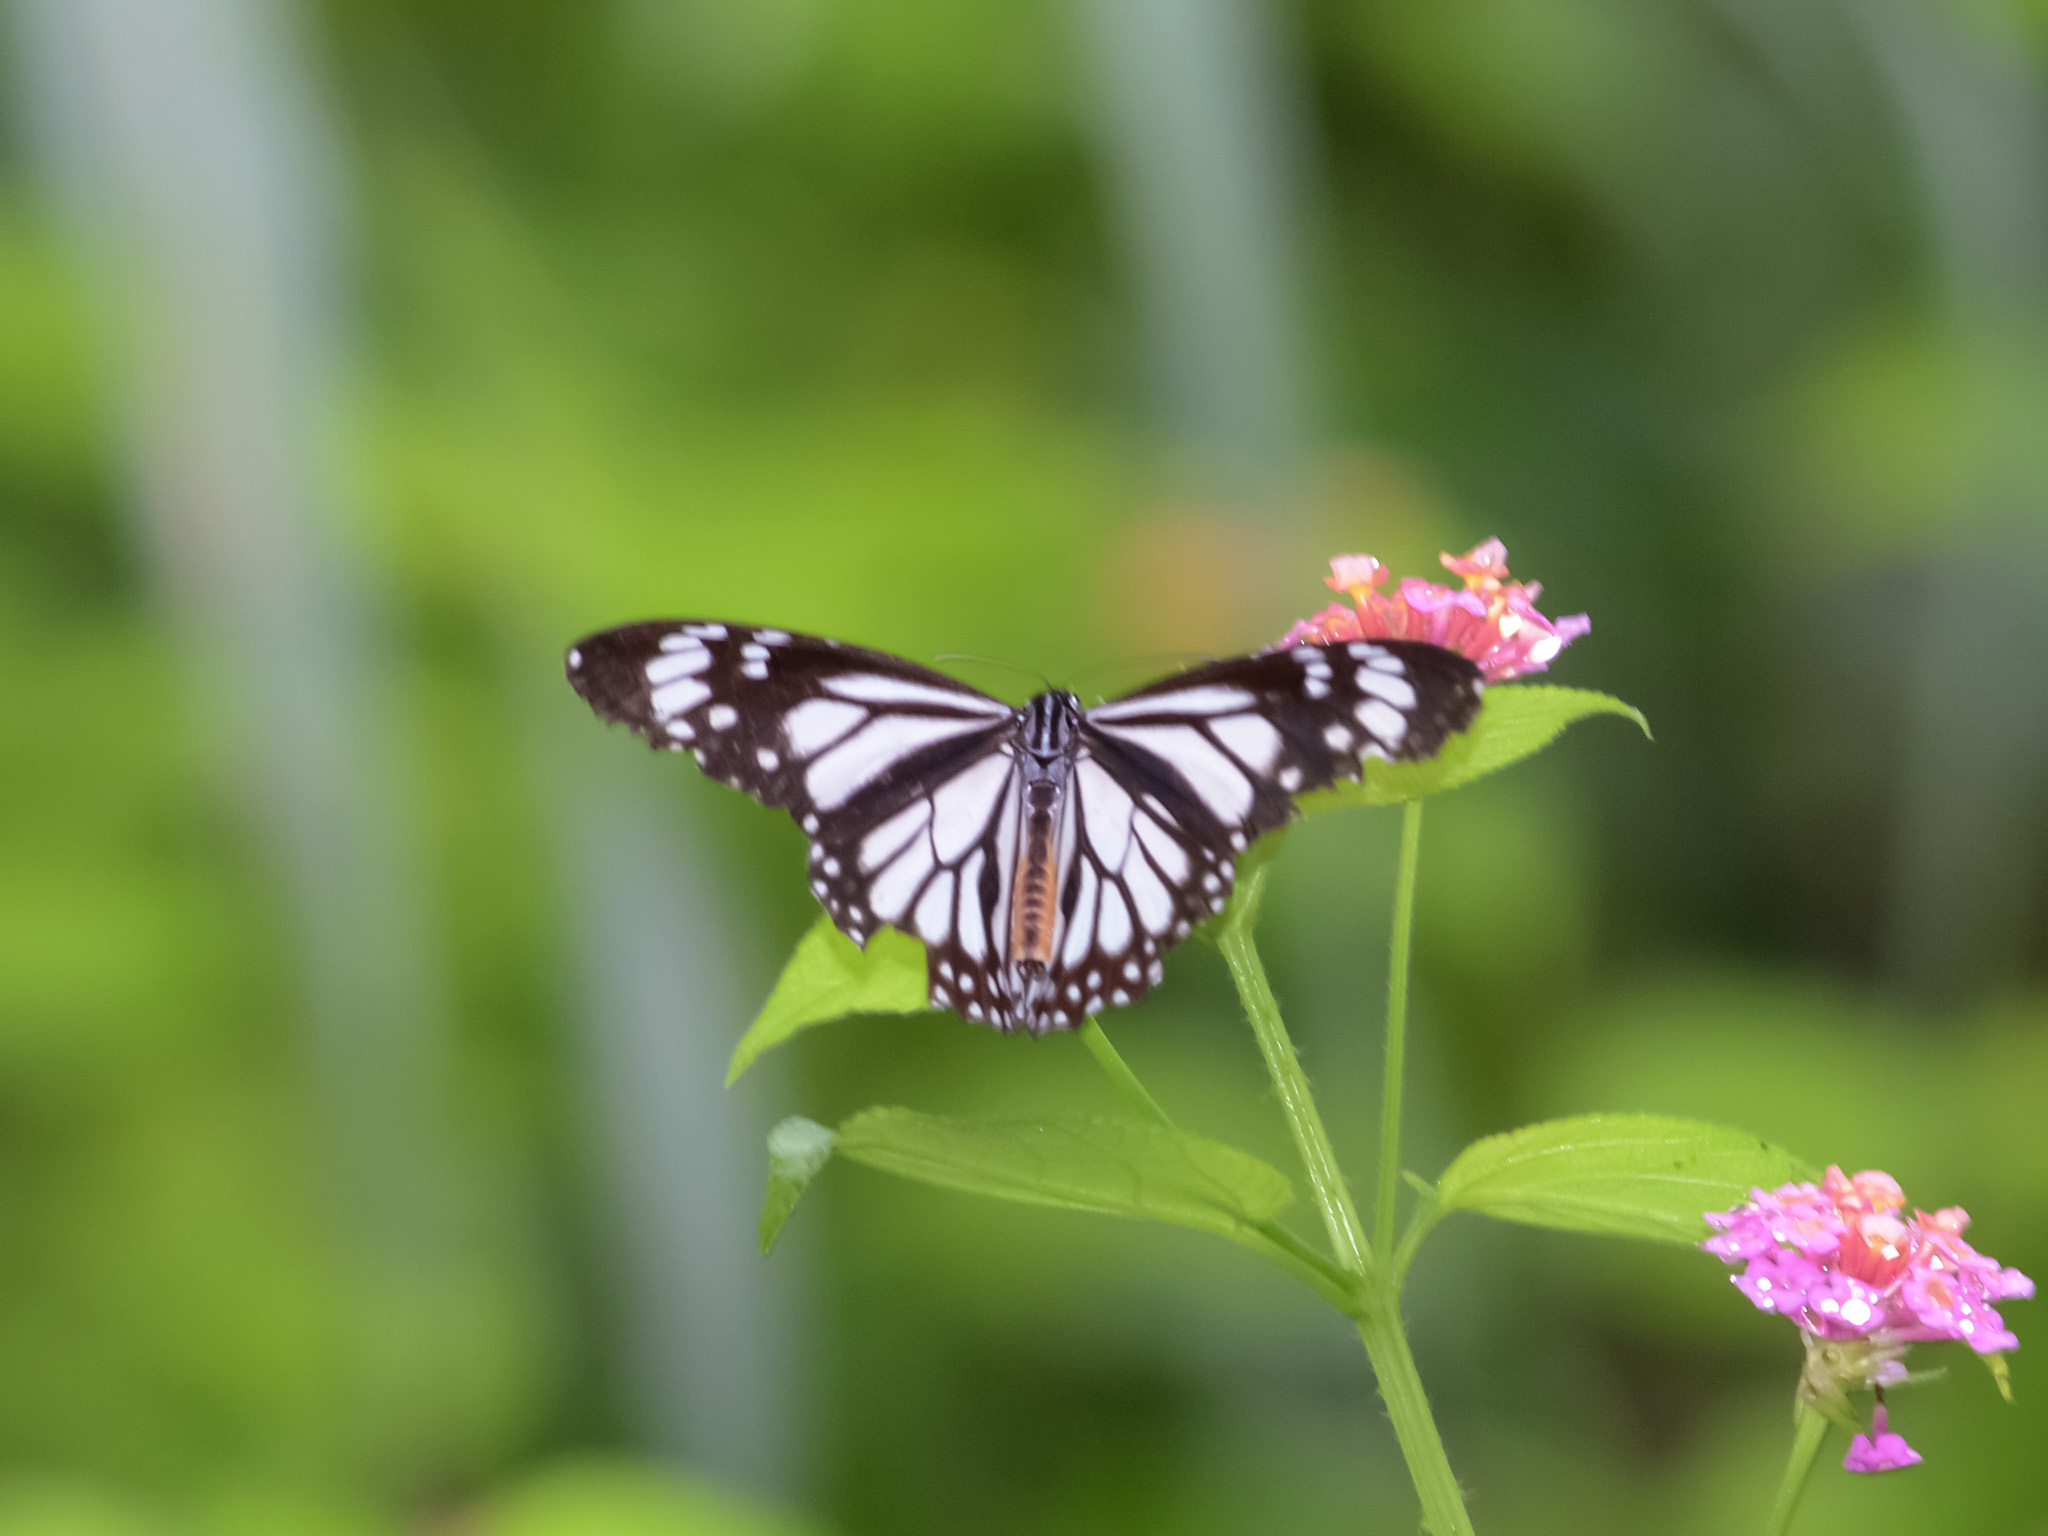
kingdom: Animalia
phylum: Arthropoda
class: Insecta
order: Lepidoptera
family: Nymphalidae
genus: Danaus
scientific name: Danaus melanippus
